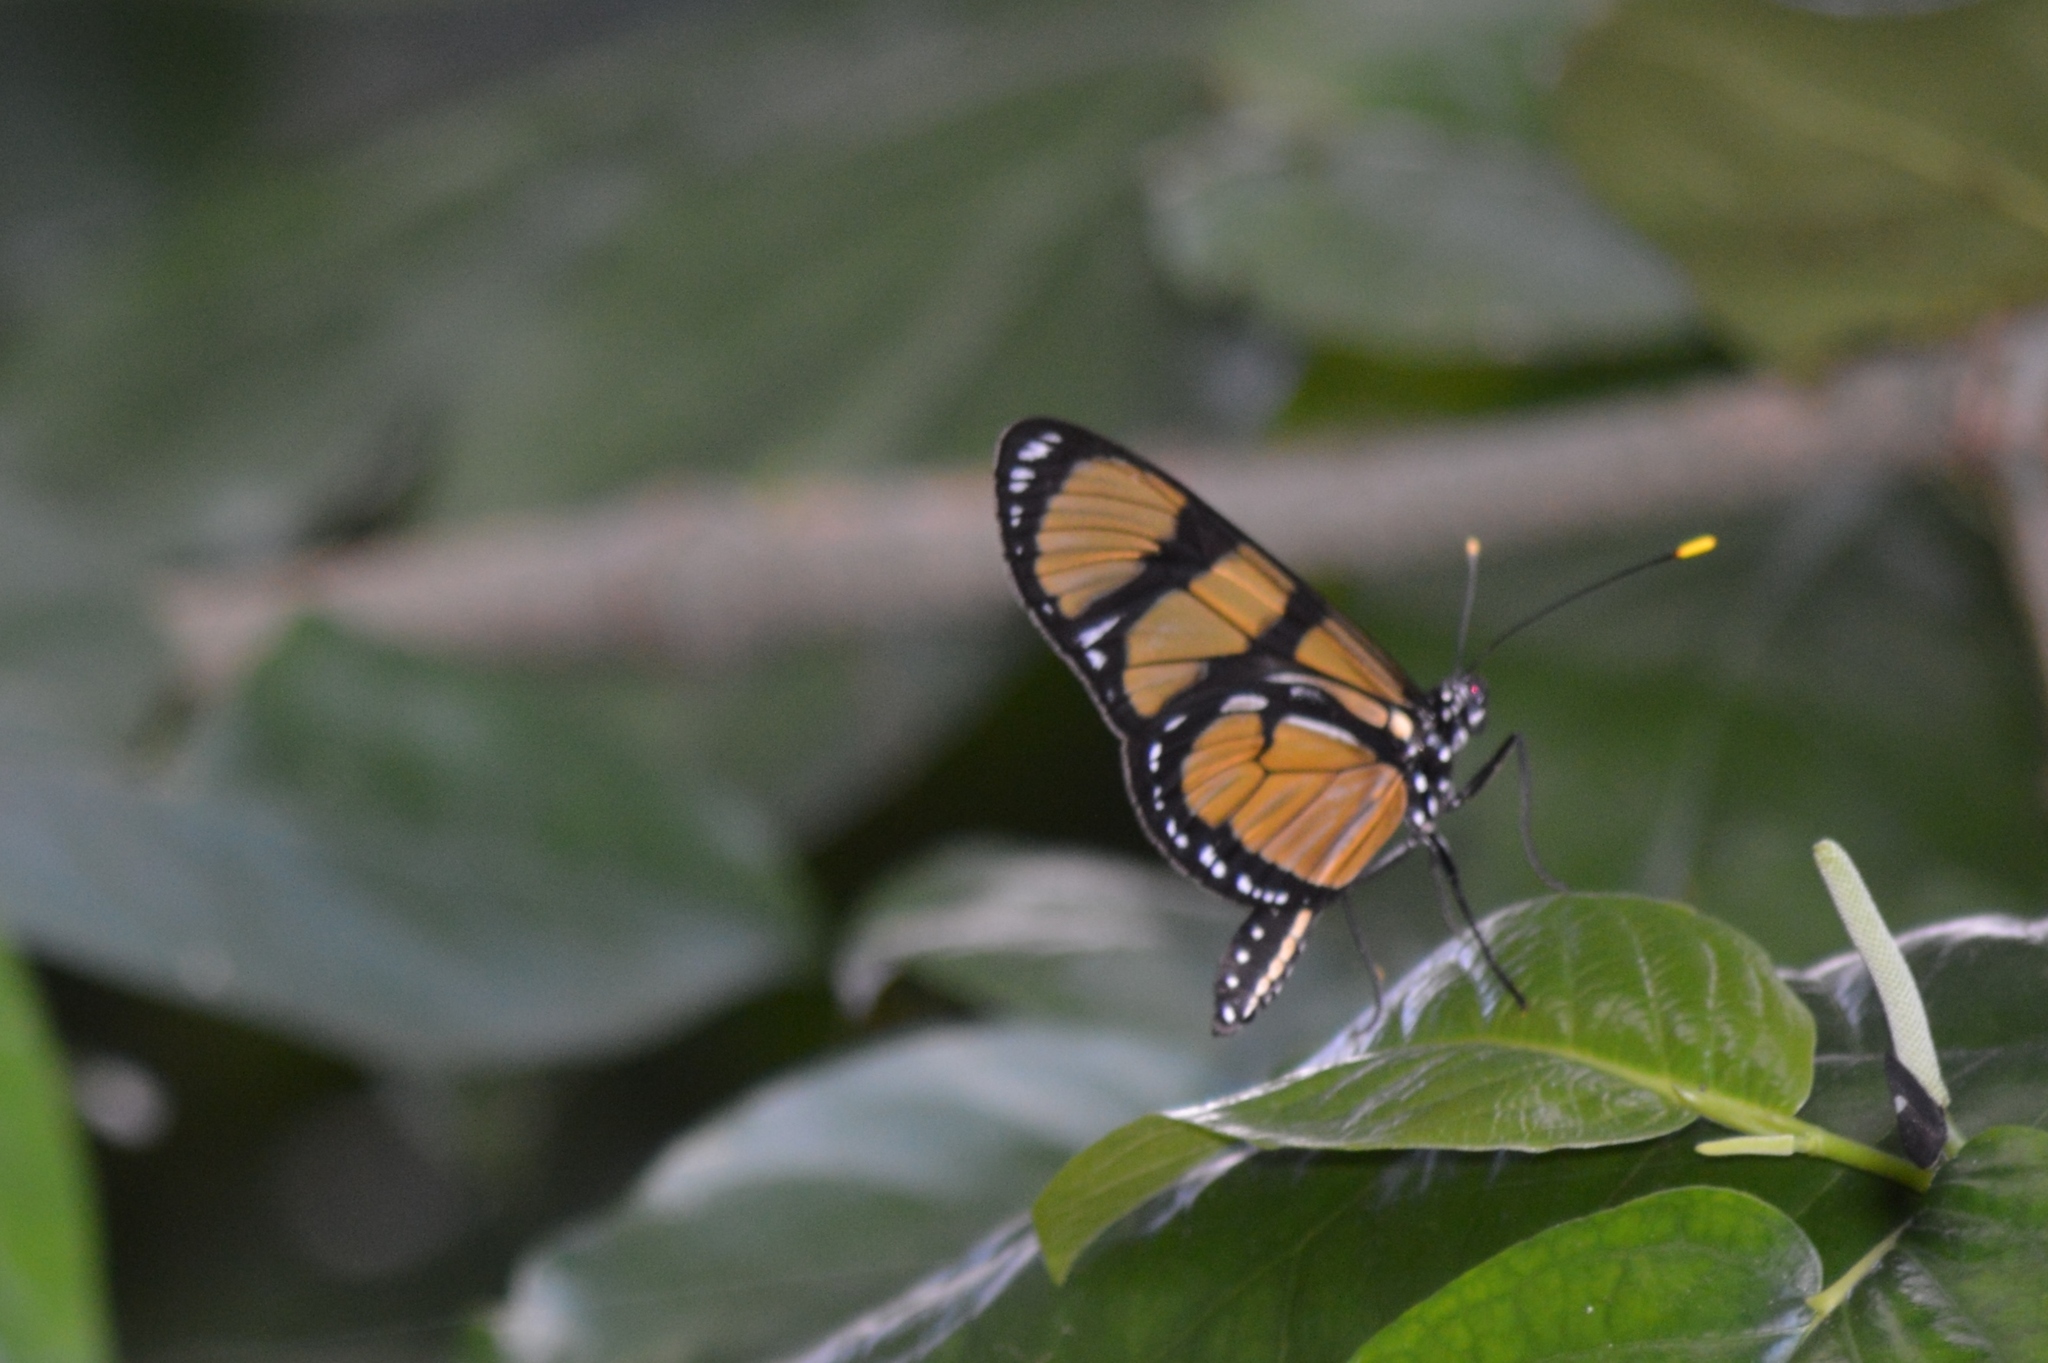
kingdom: Animalia
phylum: Arthropoda
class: Insecta
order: Lepidoptera
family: Nymphalidae
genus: Methona
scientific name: Methona themisto
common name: Themisto amberwing
